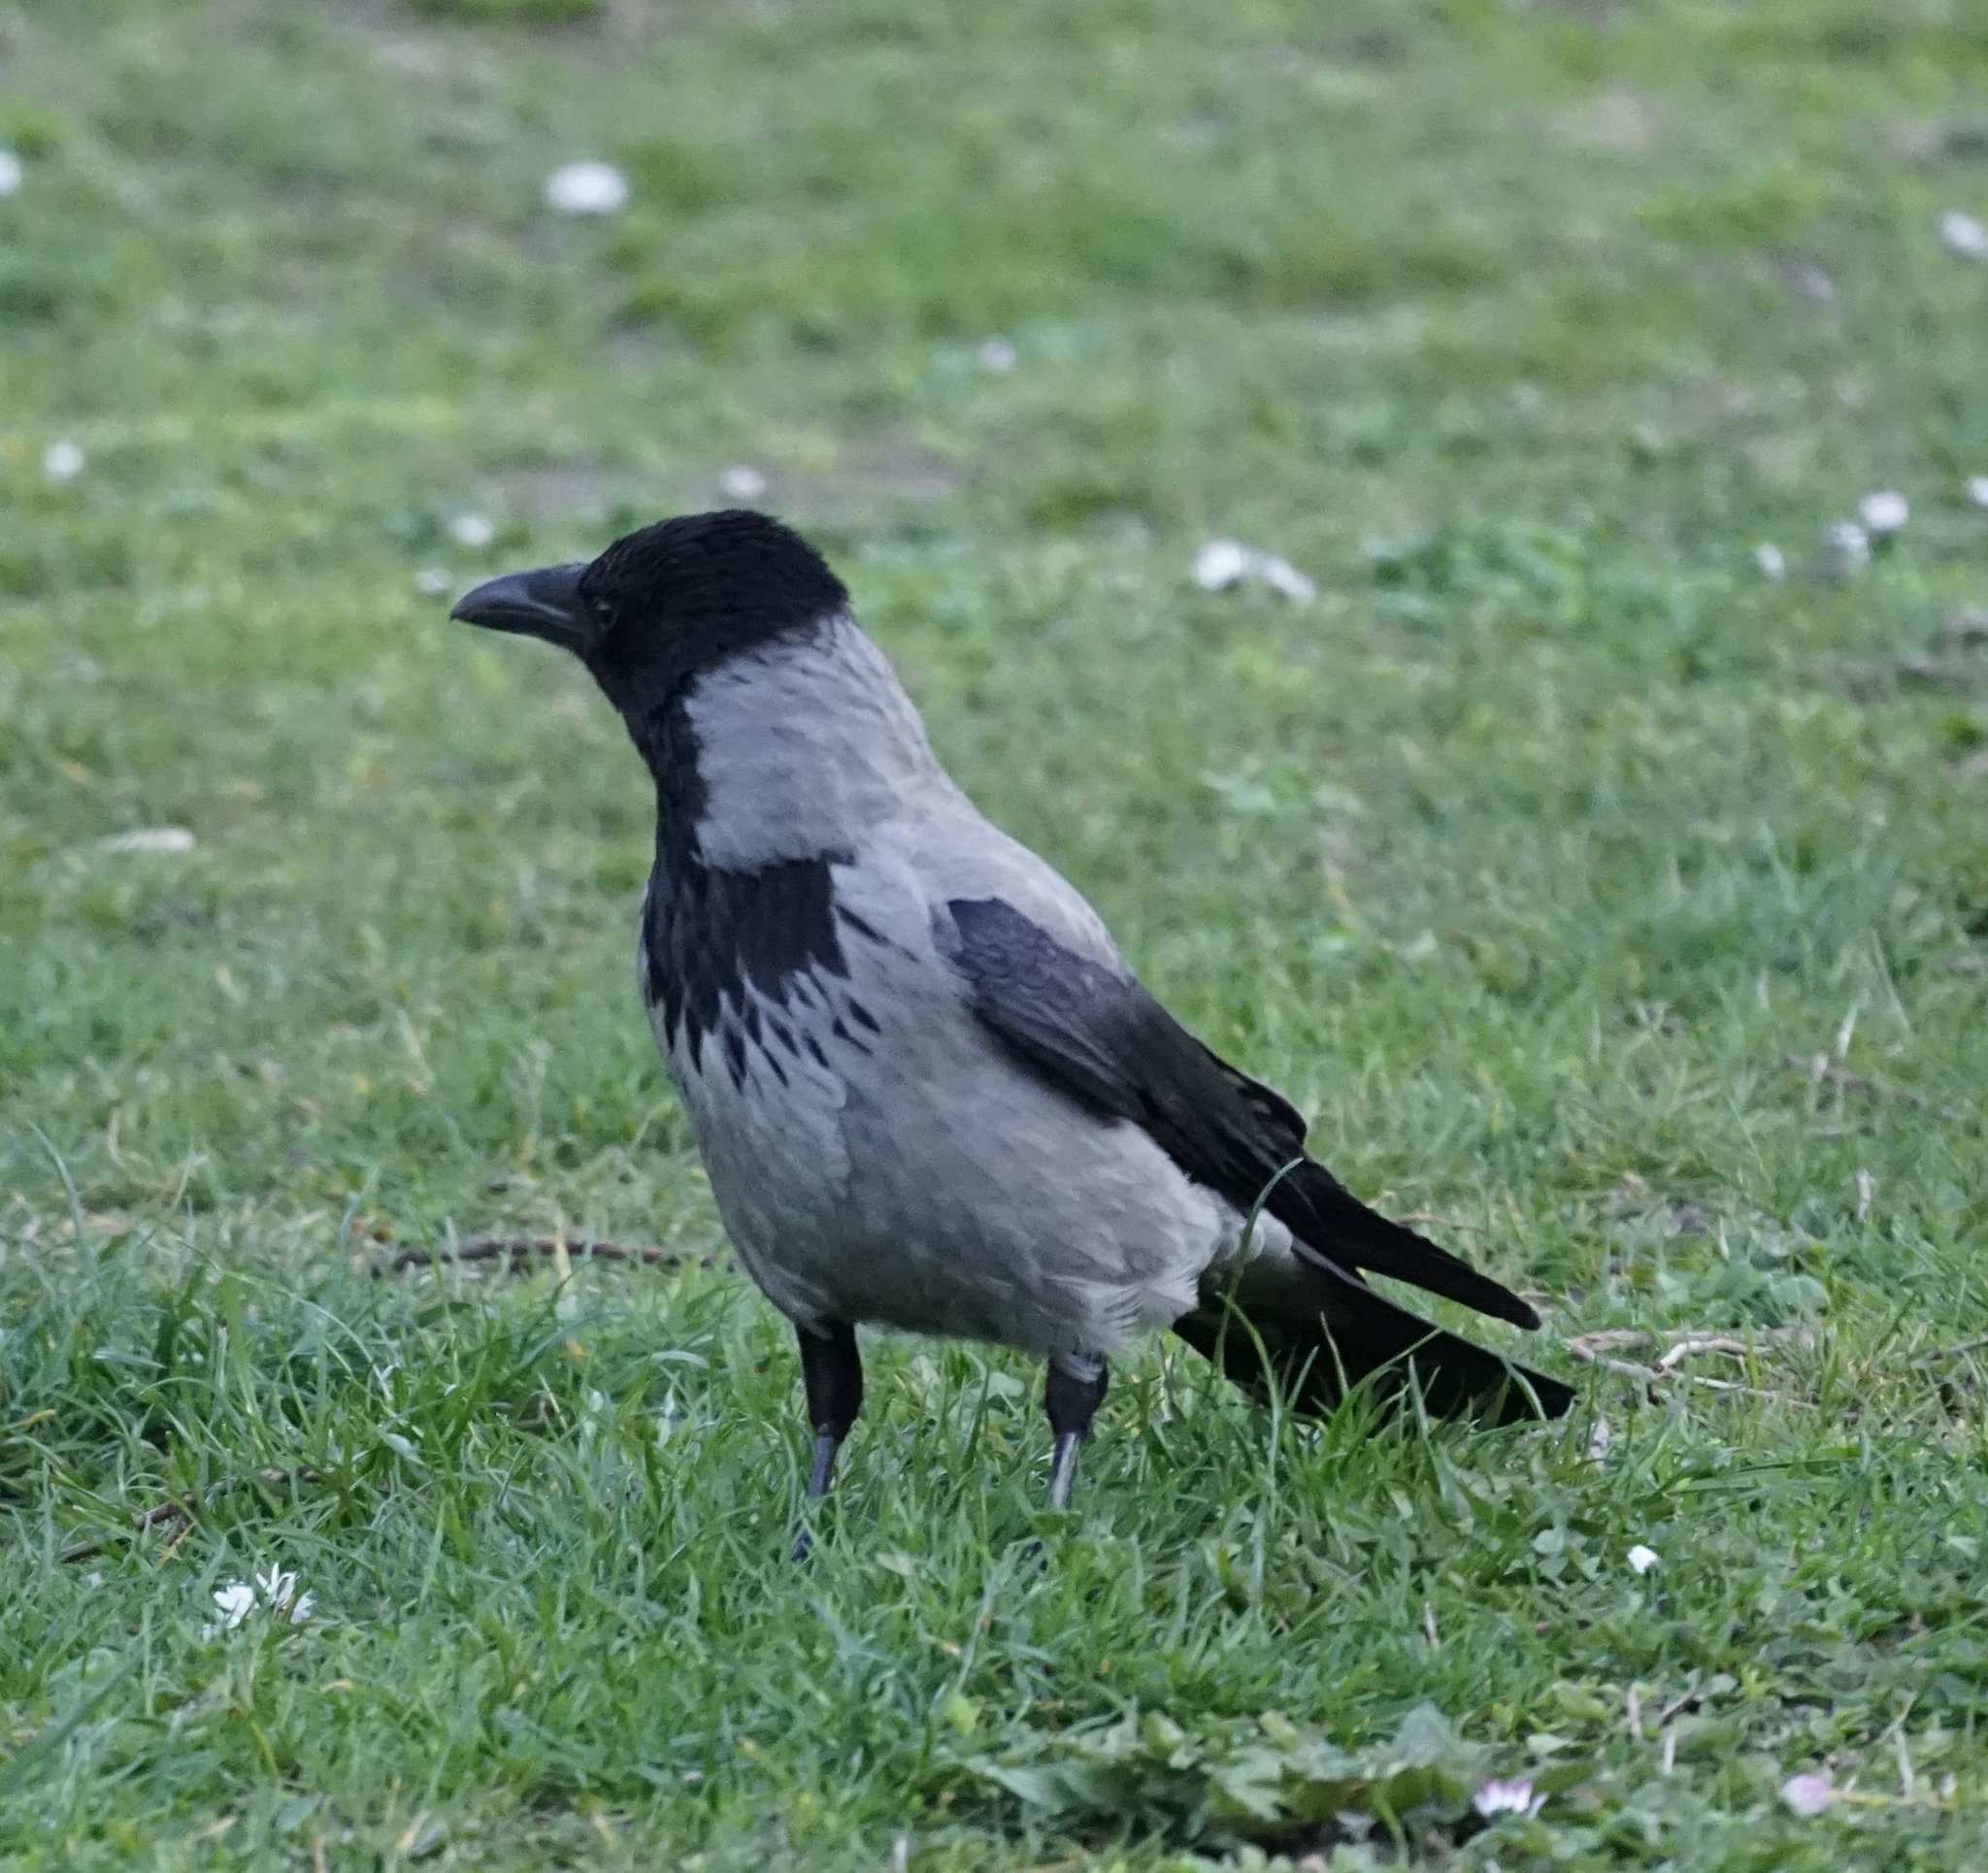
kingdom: Animalia
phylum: Chordata
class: Aves
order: Passeriformes
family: Corvidae
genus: Corvus
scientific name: Corvus cornix
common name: Hooded crow
